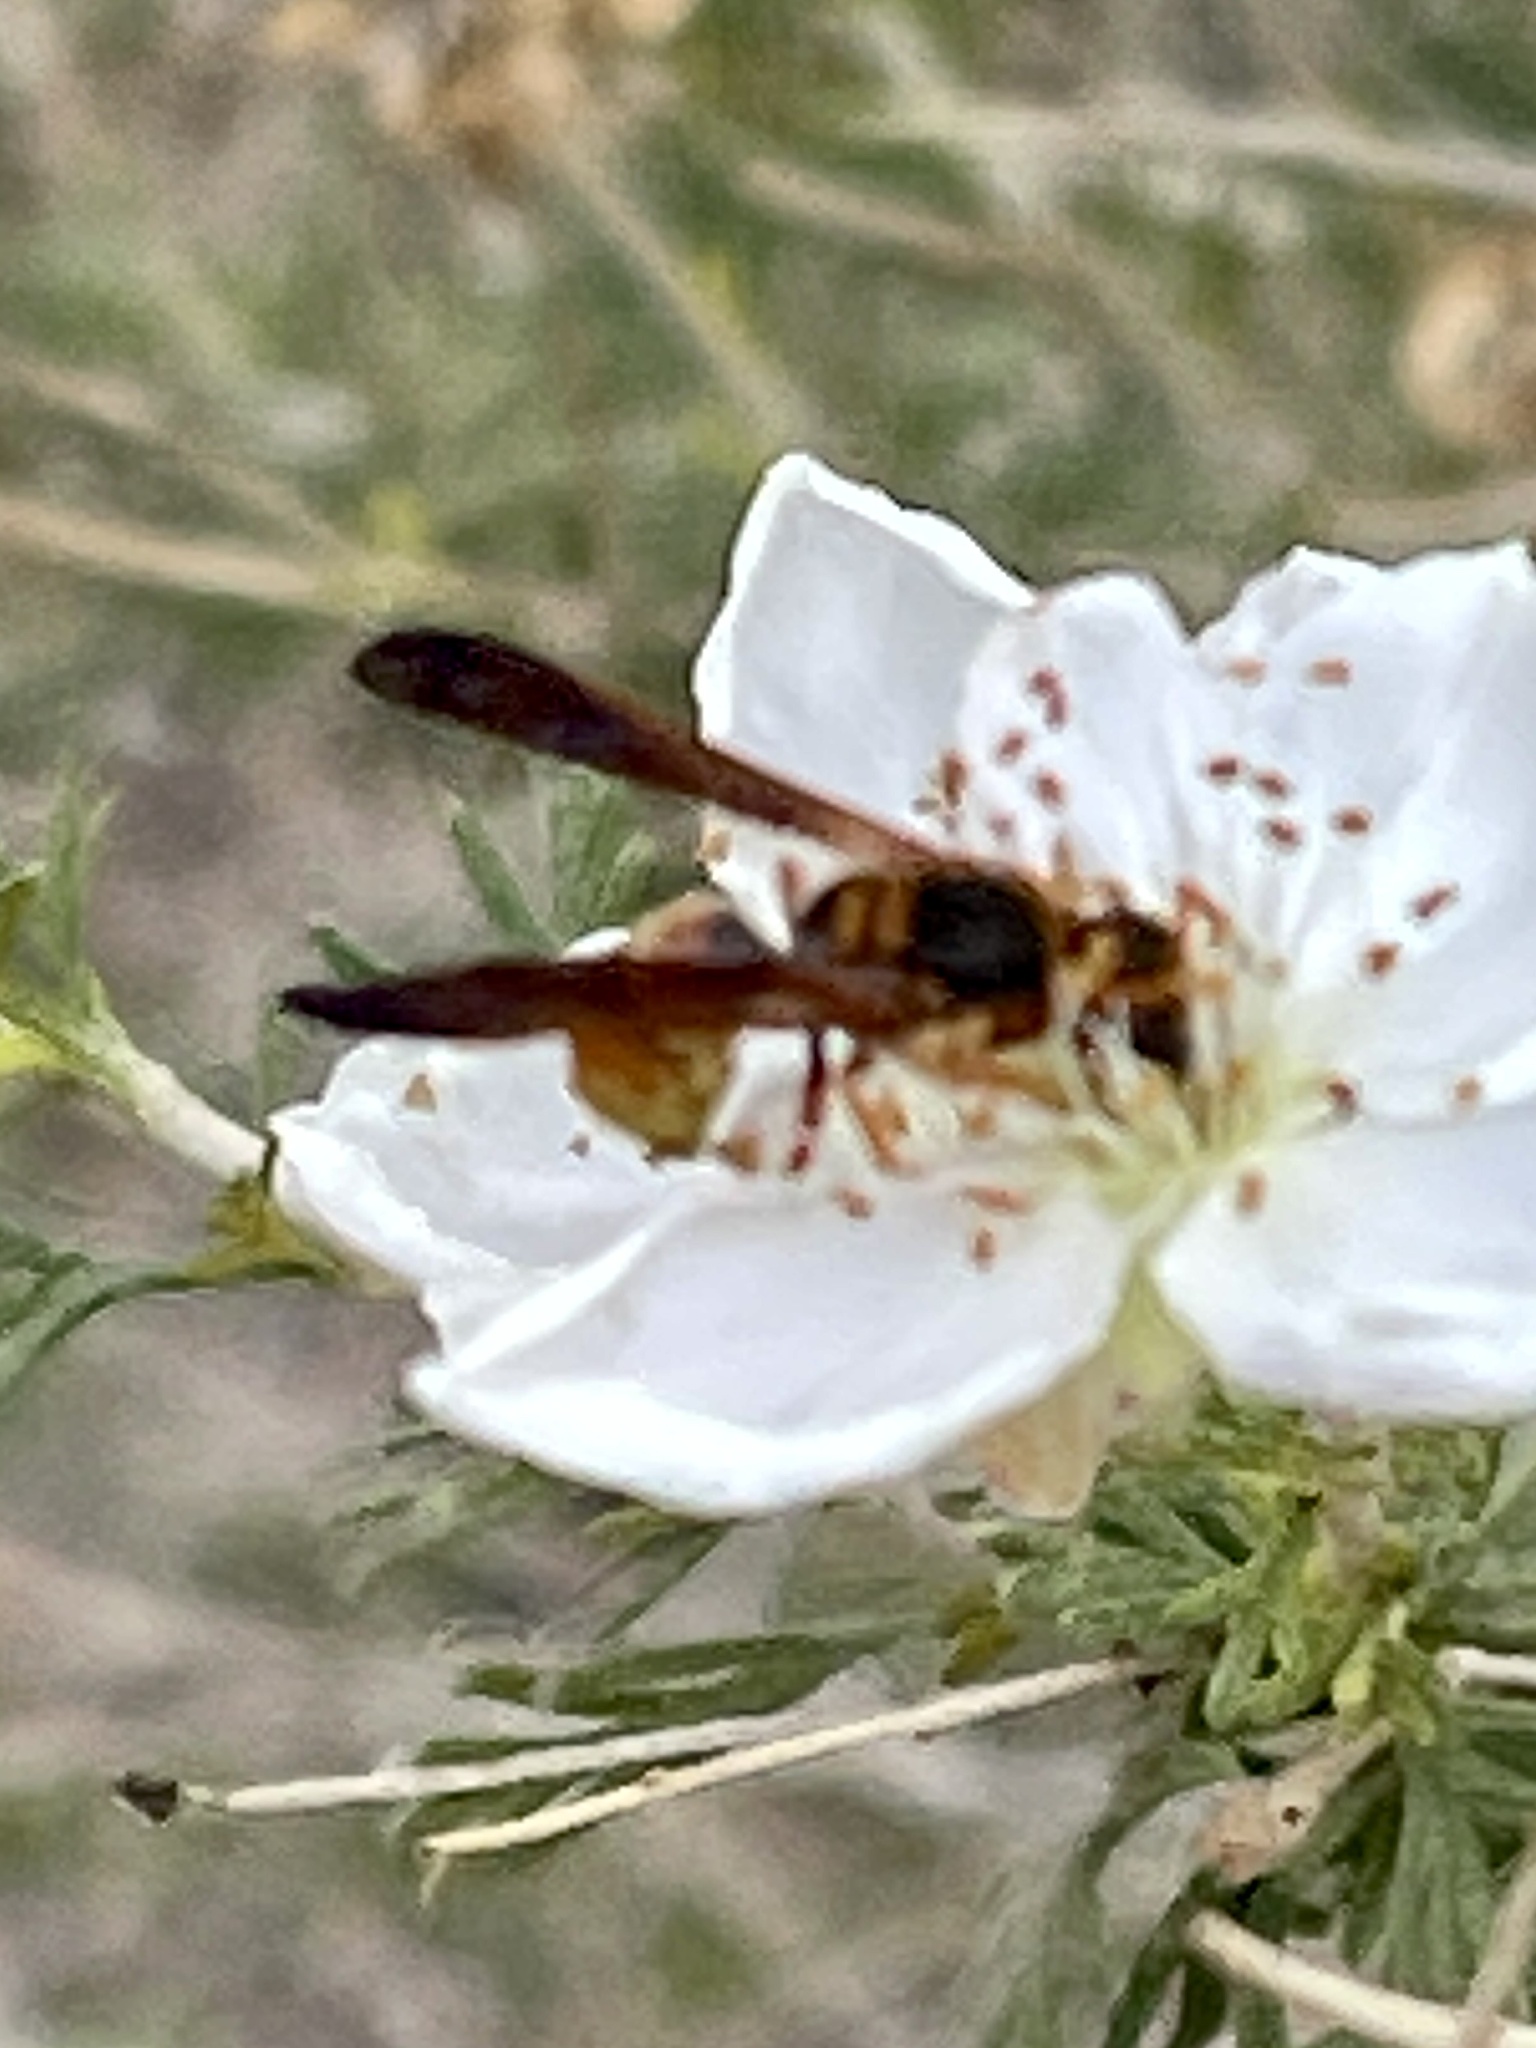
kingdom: Animalia
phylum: Arthropoda
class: Insecta
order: Hymenoptera
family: Eumenidae
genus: Euodynerus
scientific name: Euodynerus
